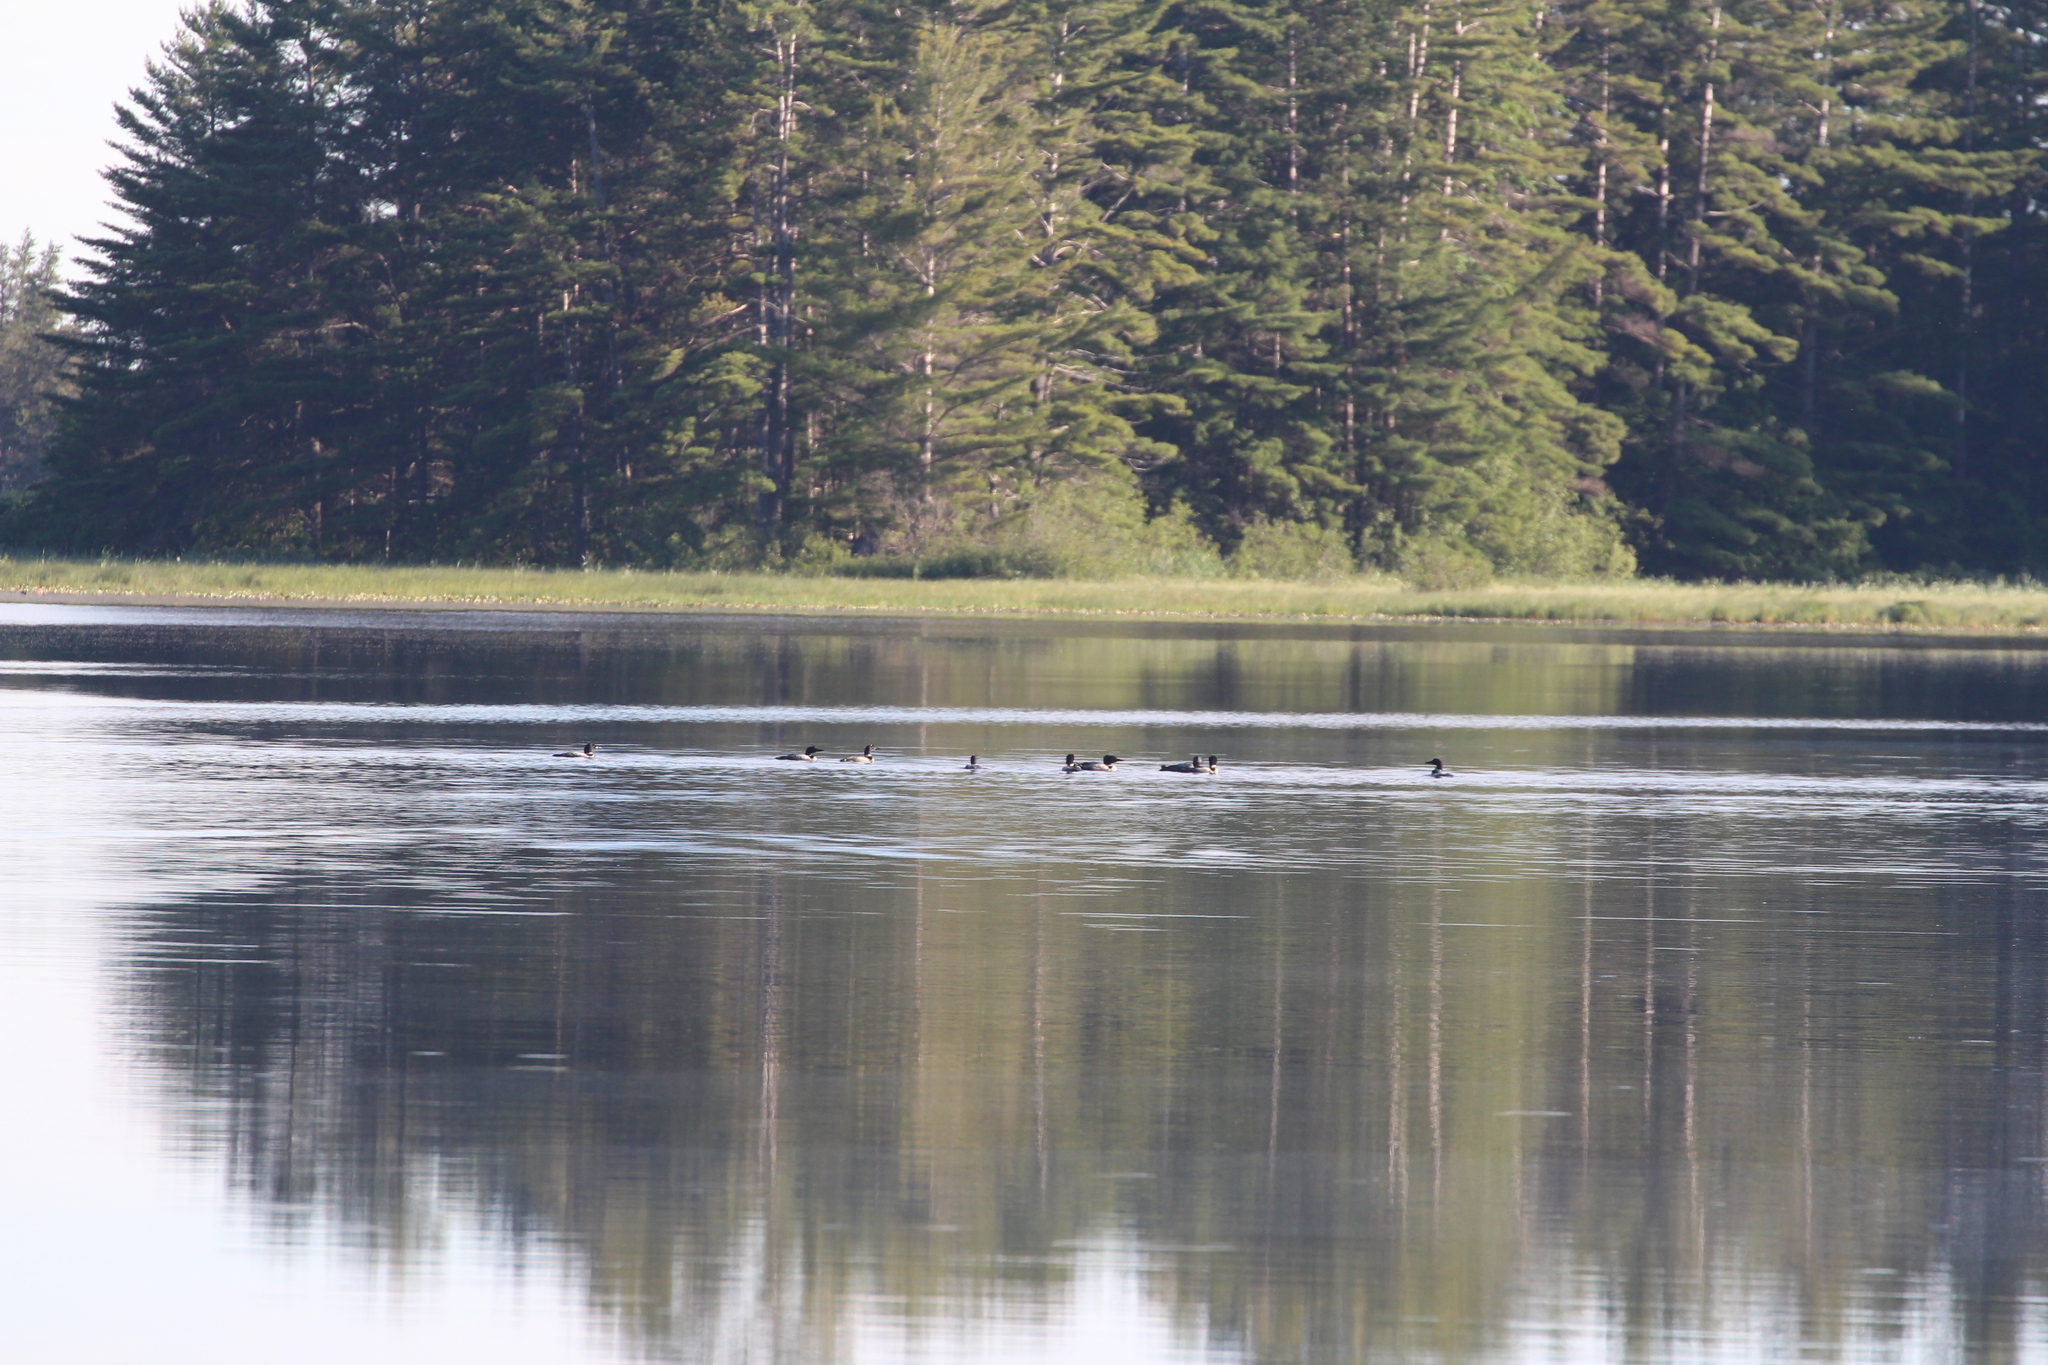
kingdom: Animalia
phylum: Chordata
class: Aves
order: Gaviiformes
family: Gaviidae
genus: Gavia
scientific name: Gavia immer
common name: Common loon
